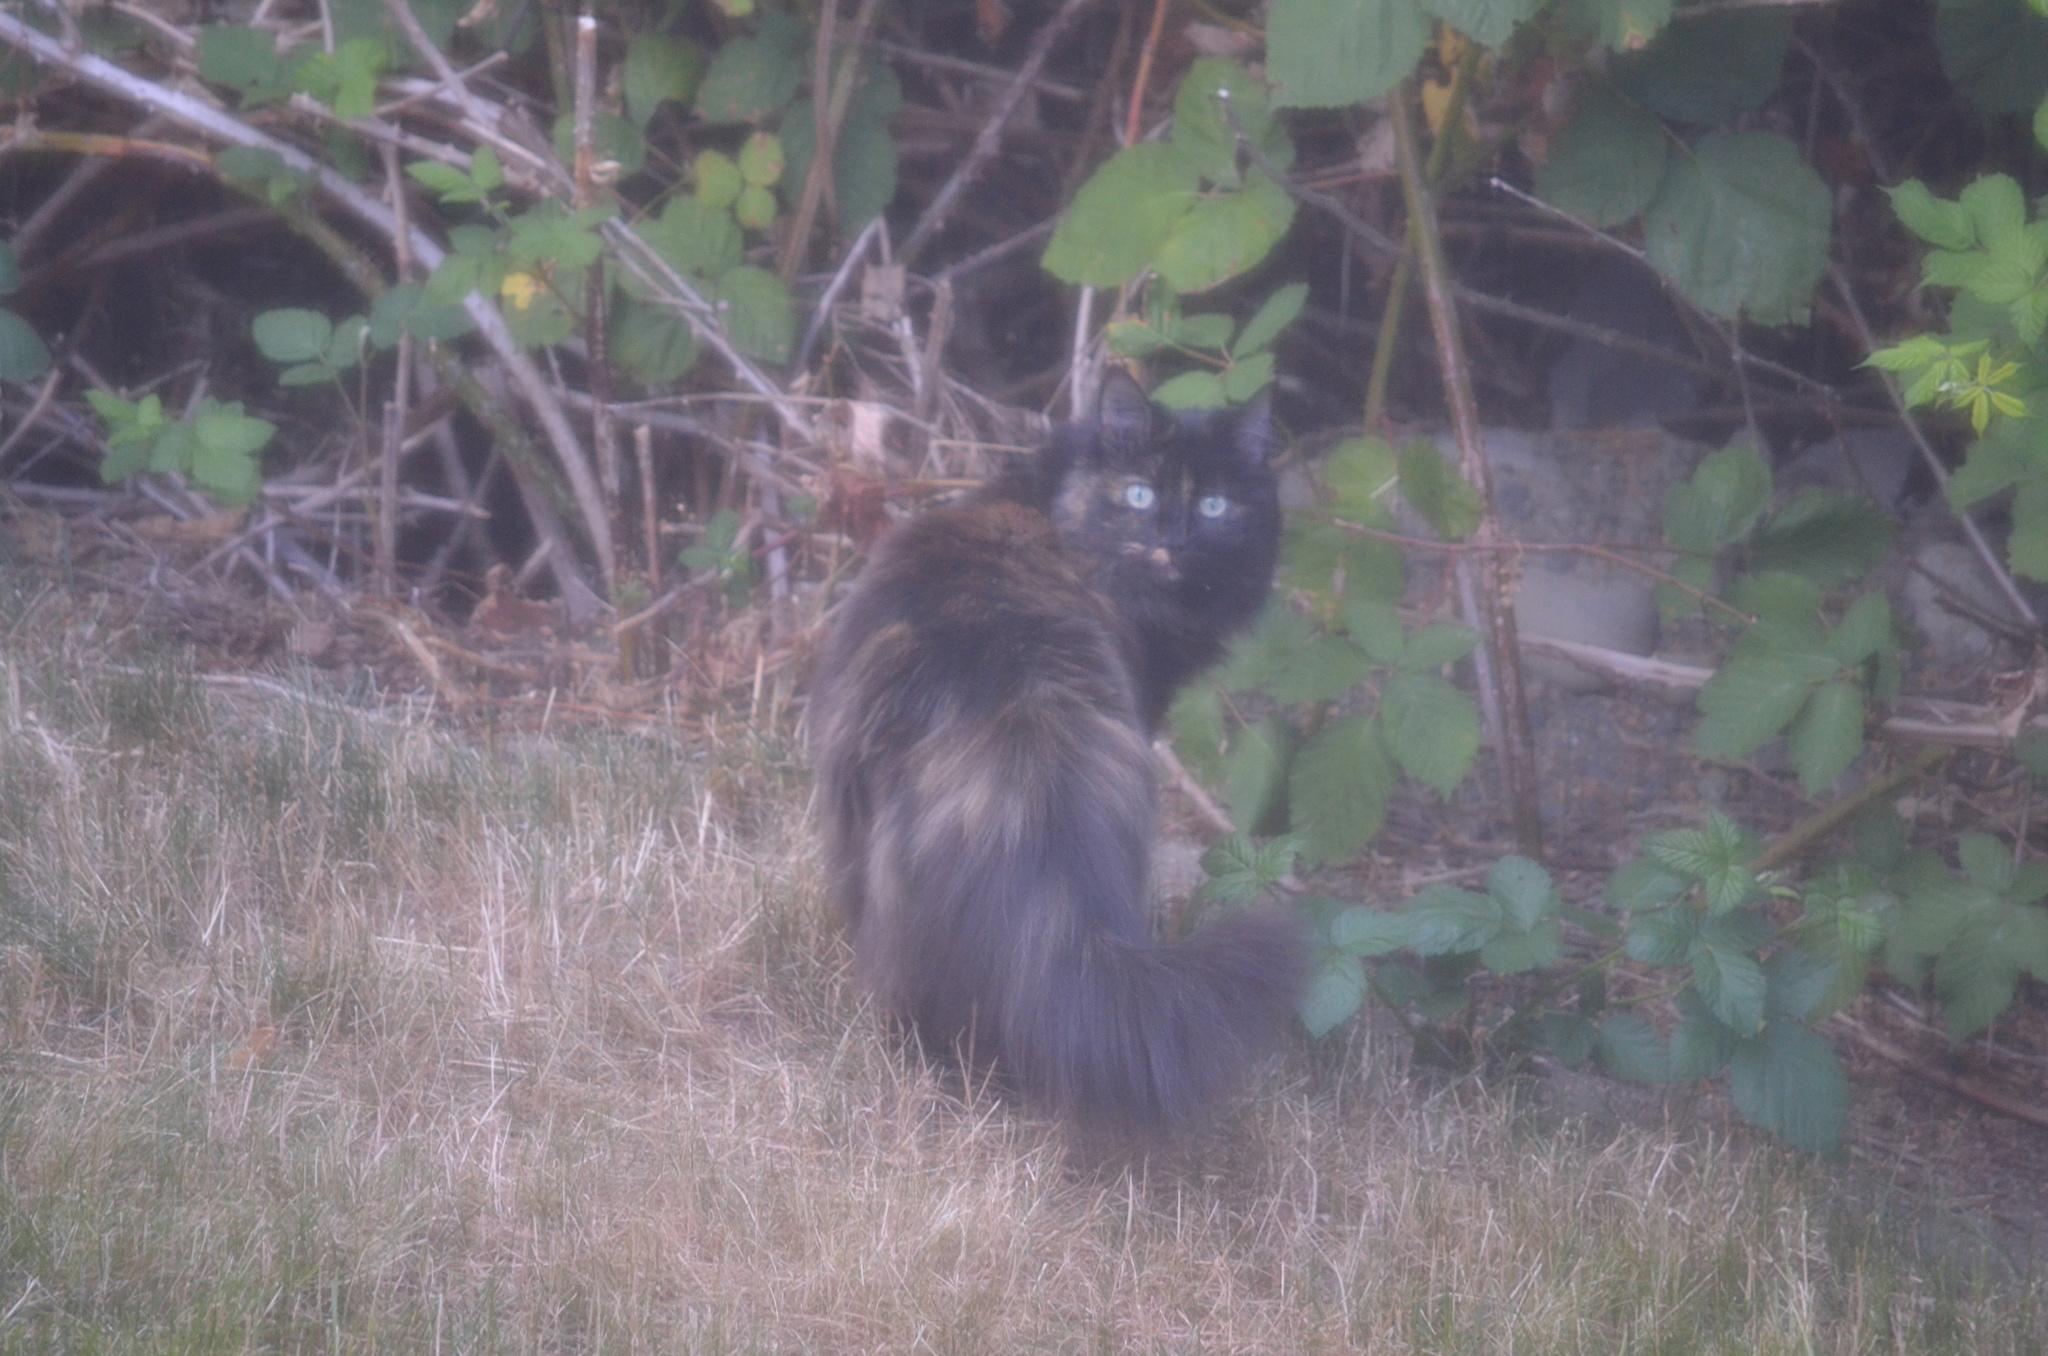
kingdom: Animalia
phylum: Chordata
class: Mammalia
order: Carnivora
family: Felidae
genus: Felis
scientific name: Felis catus
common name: Domestic cat
